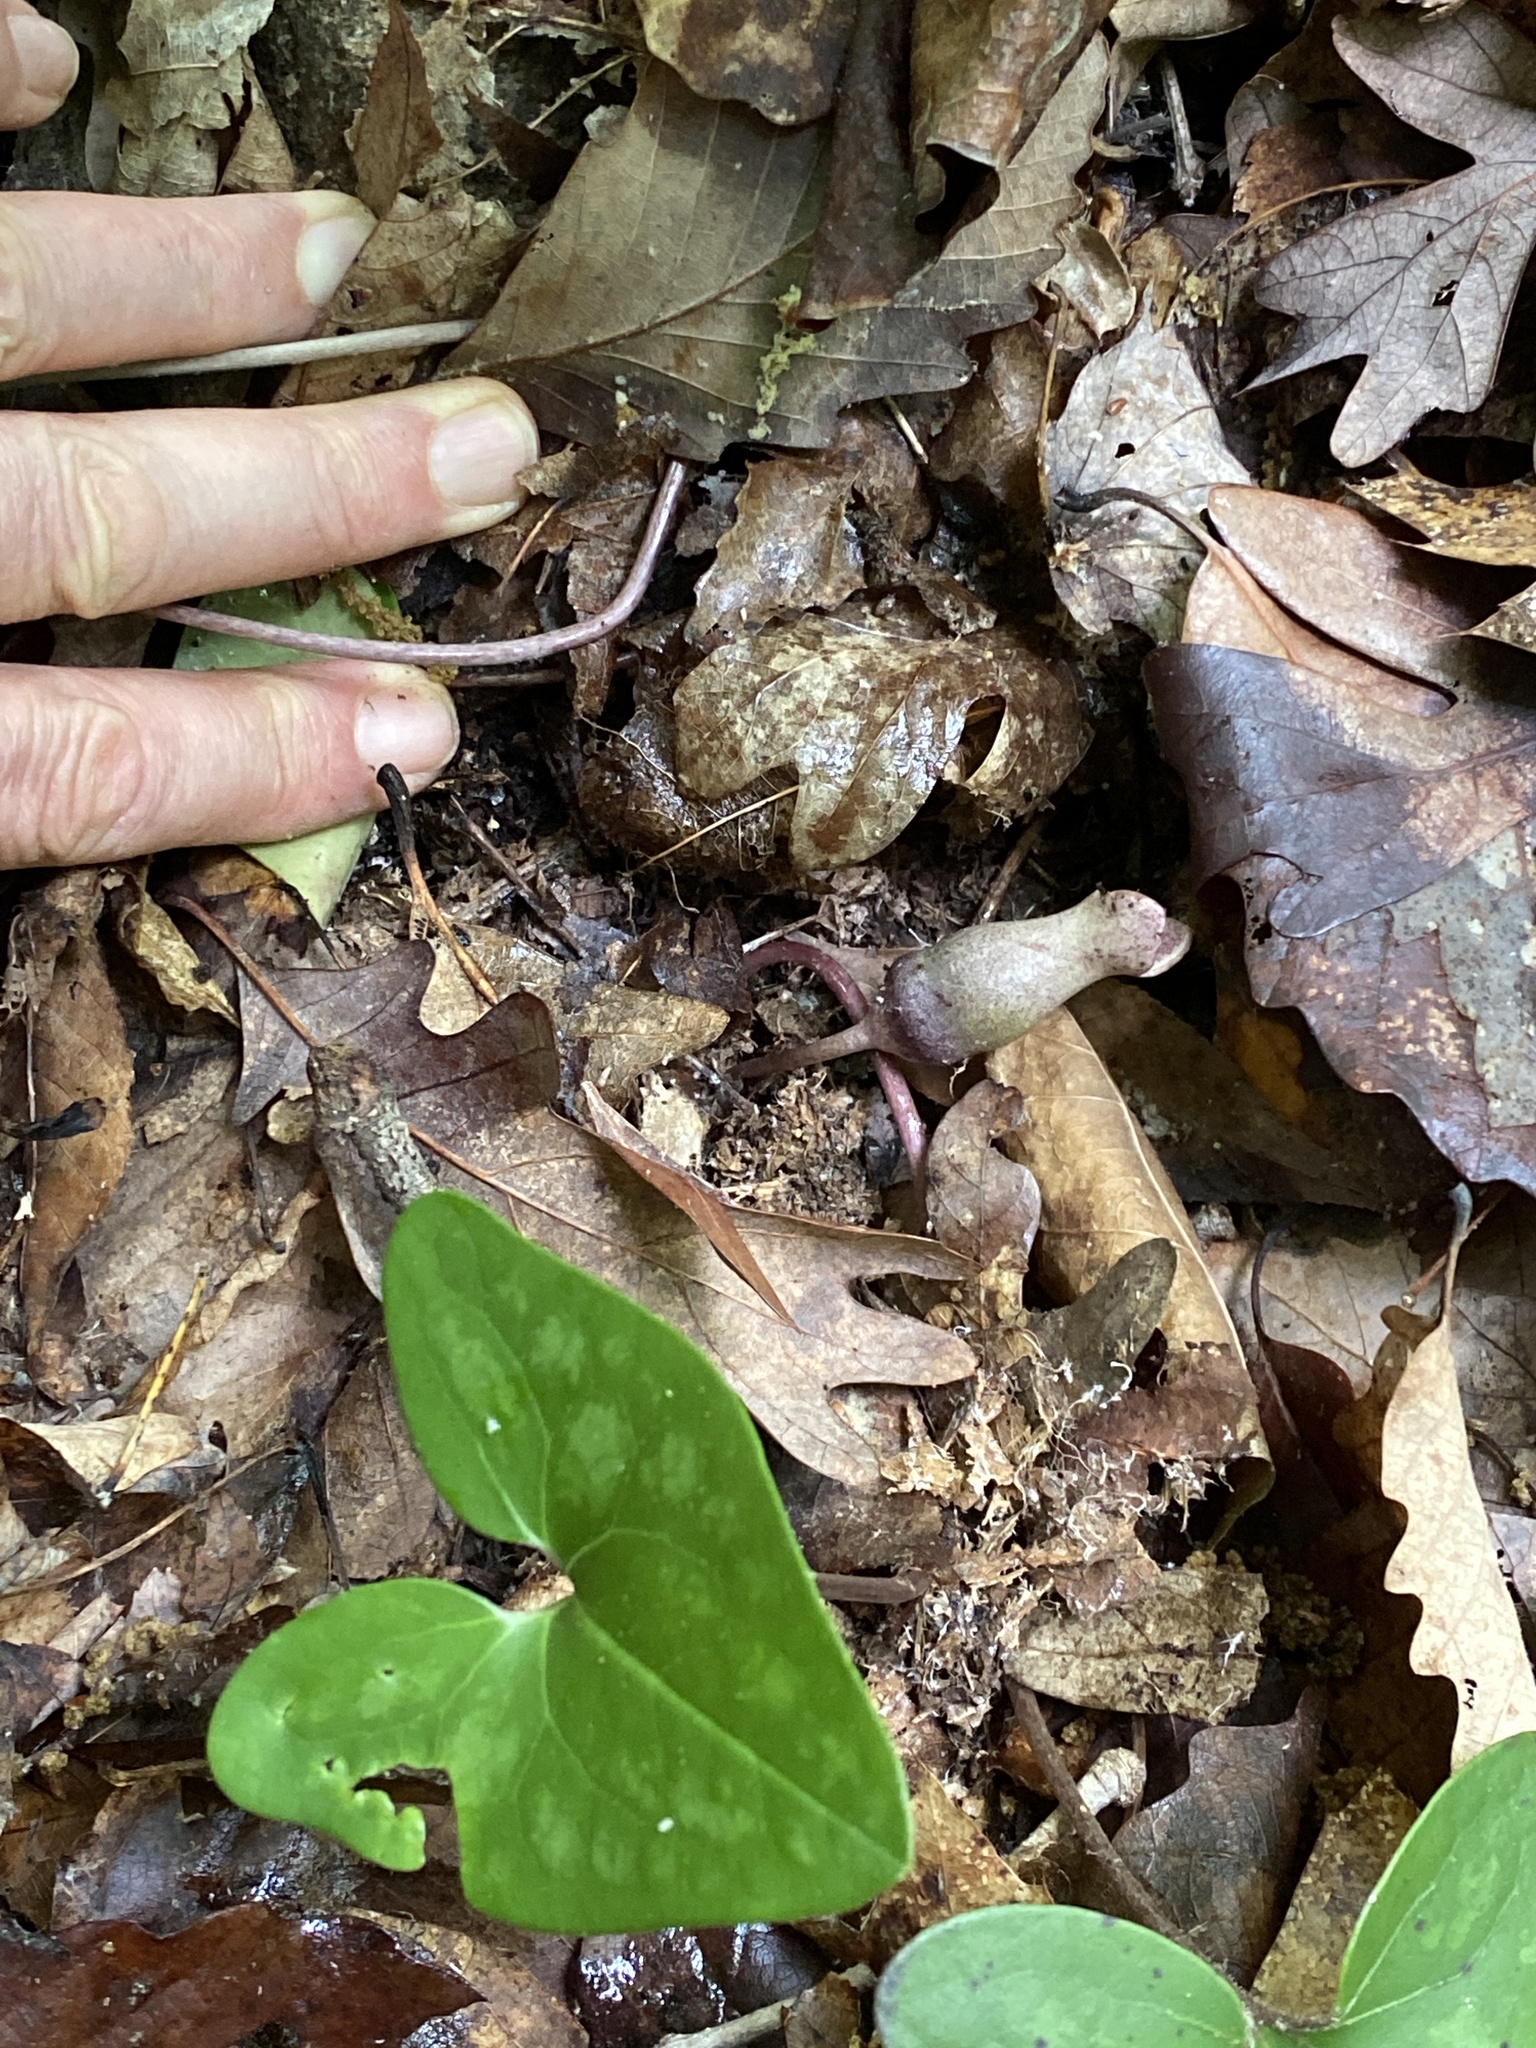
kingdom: Plantae
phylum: Tracheophyta
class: Magnoliopsida
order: Piperales
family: Aristolochiaceae
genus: Hexastylis
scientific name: Hexastylis arifolia
